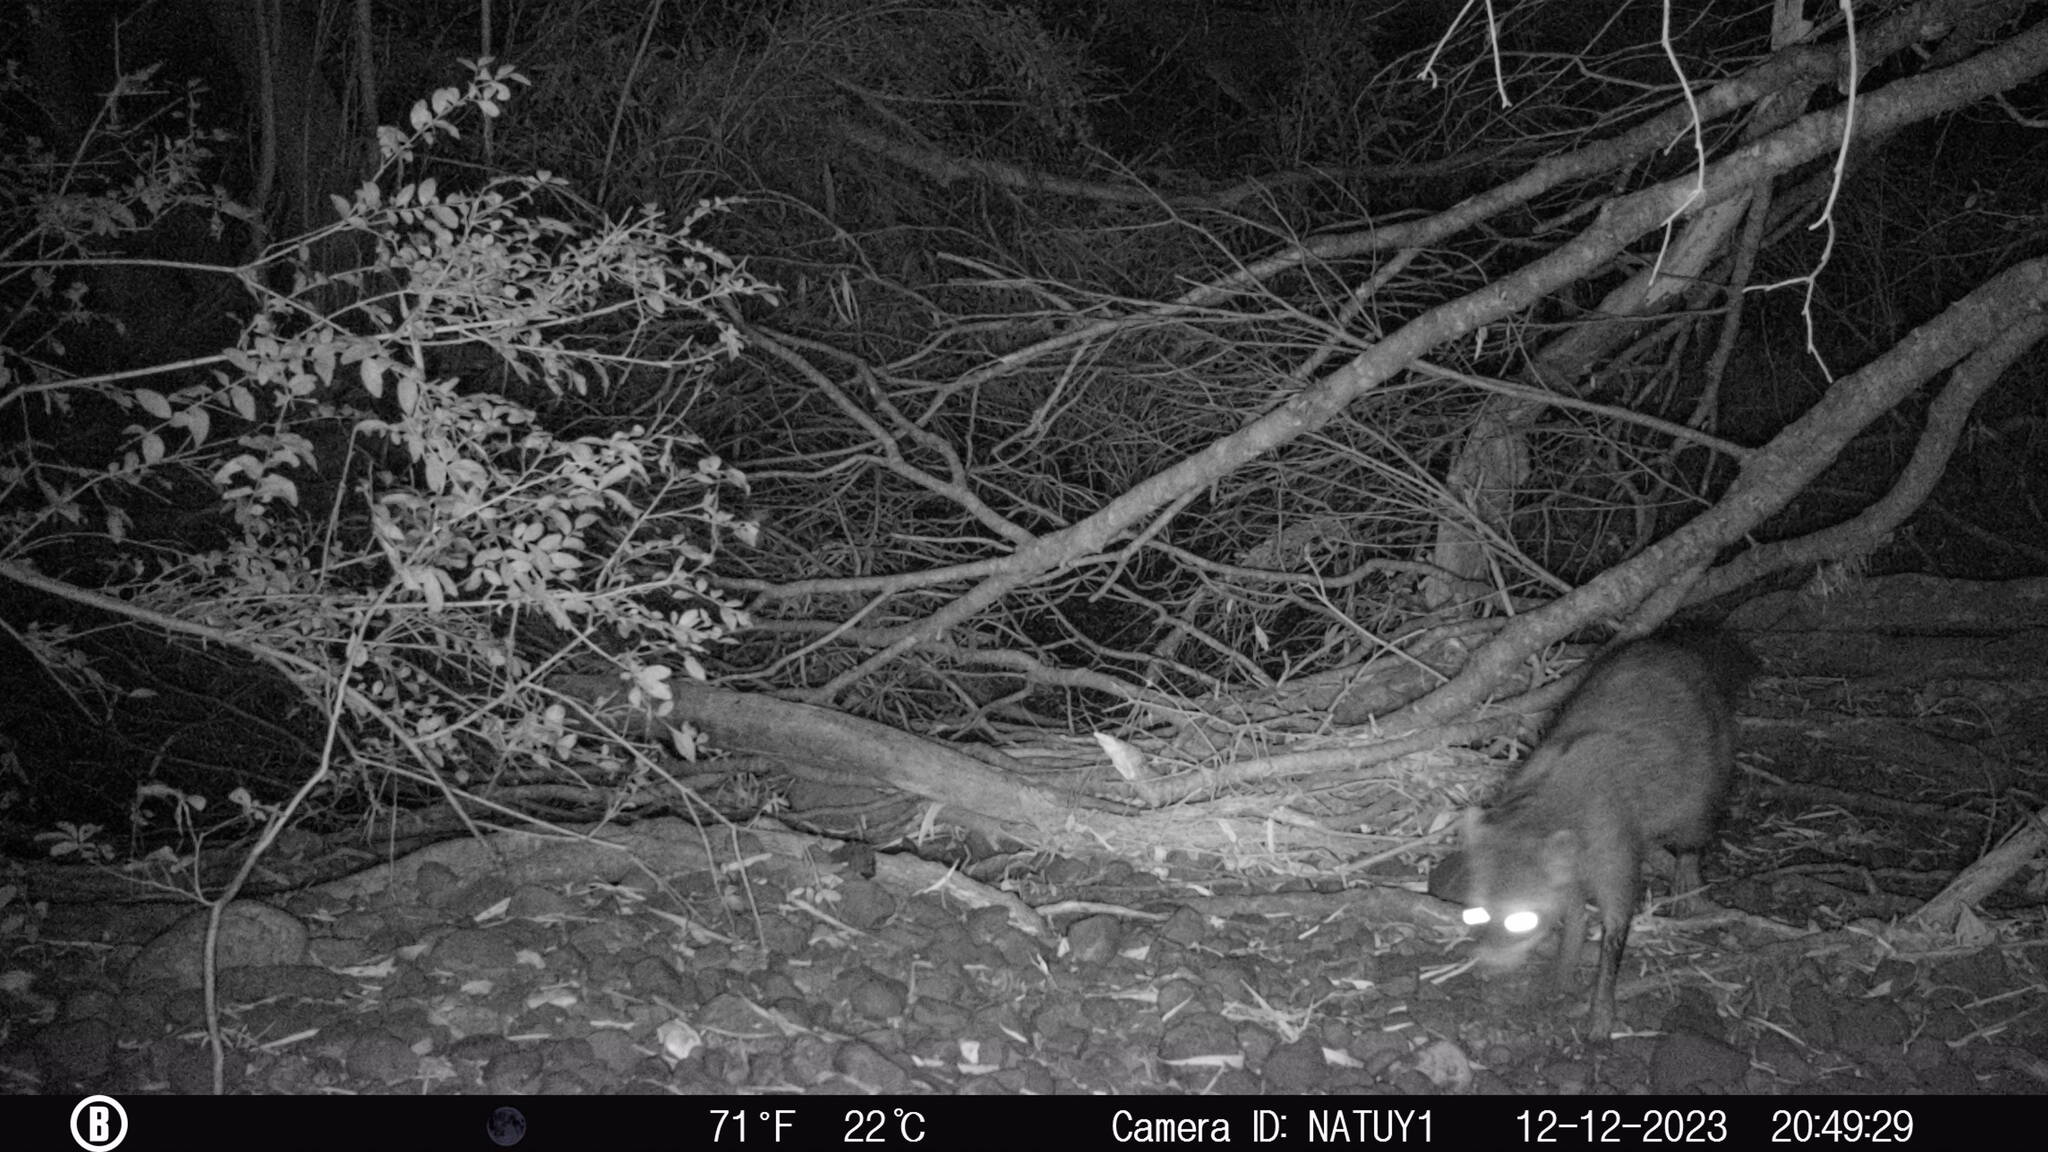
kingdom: Animalia
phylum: Chordata
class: Mammalia
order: Carnivora
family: Procyonidae
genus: Procyon
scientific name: Procyon cancrivorus
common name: Crab-eating raccoon
